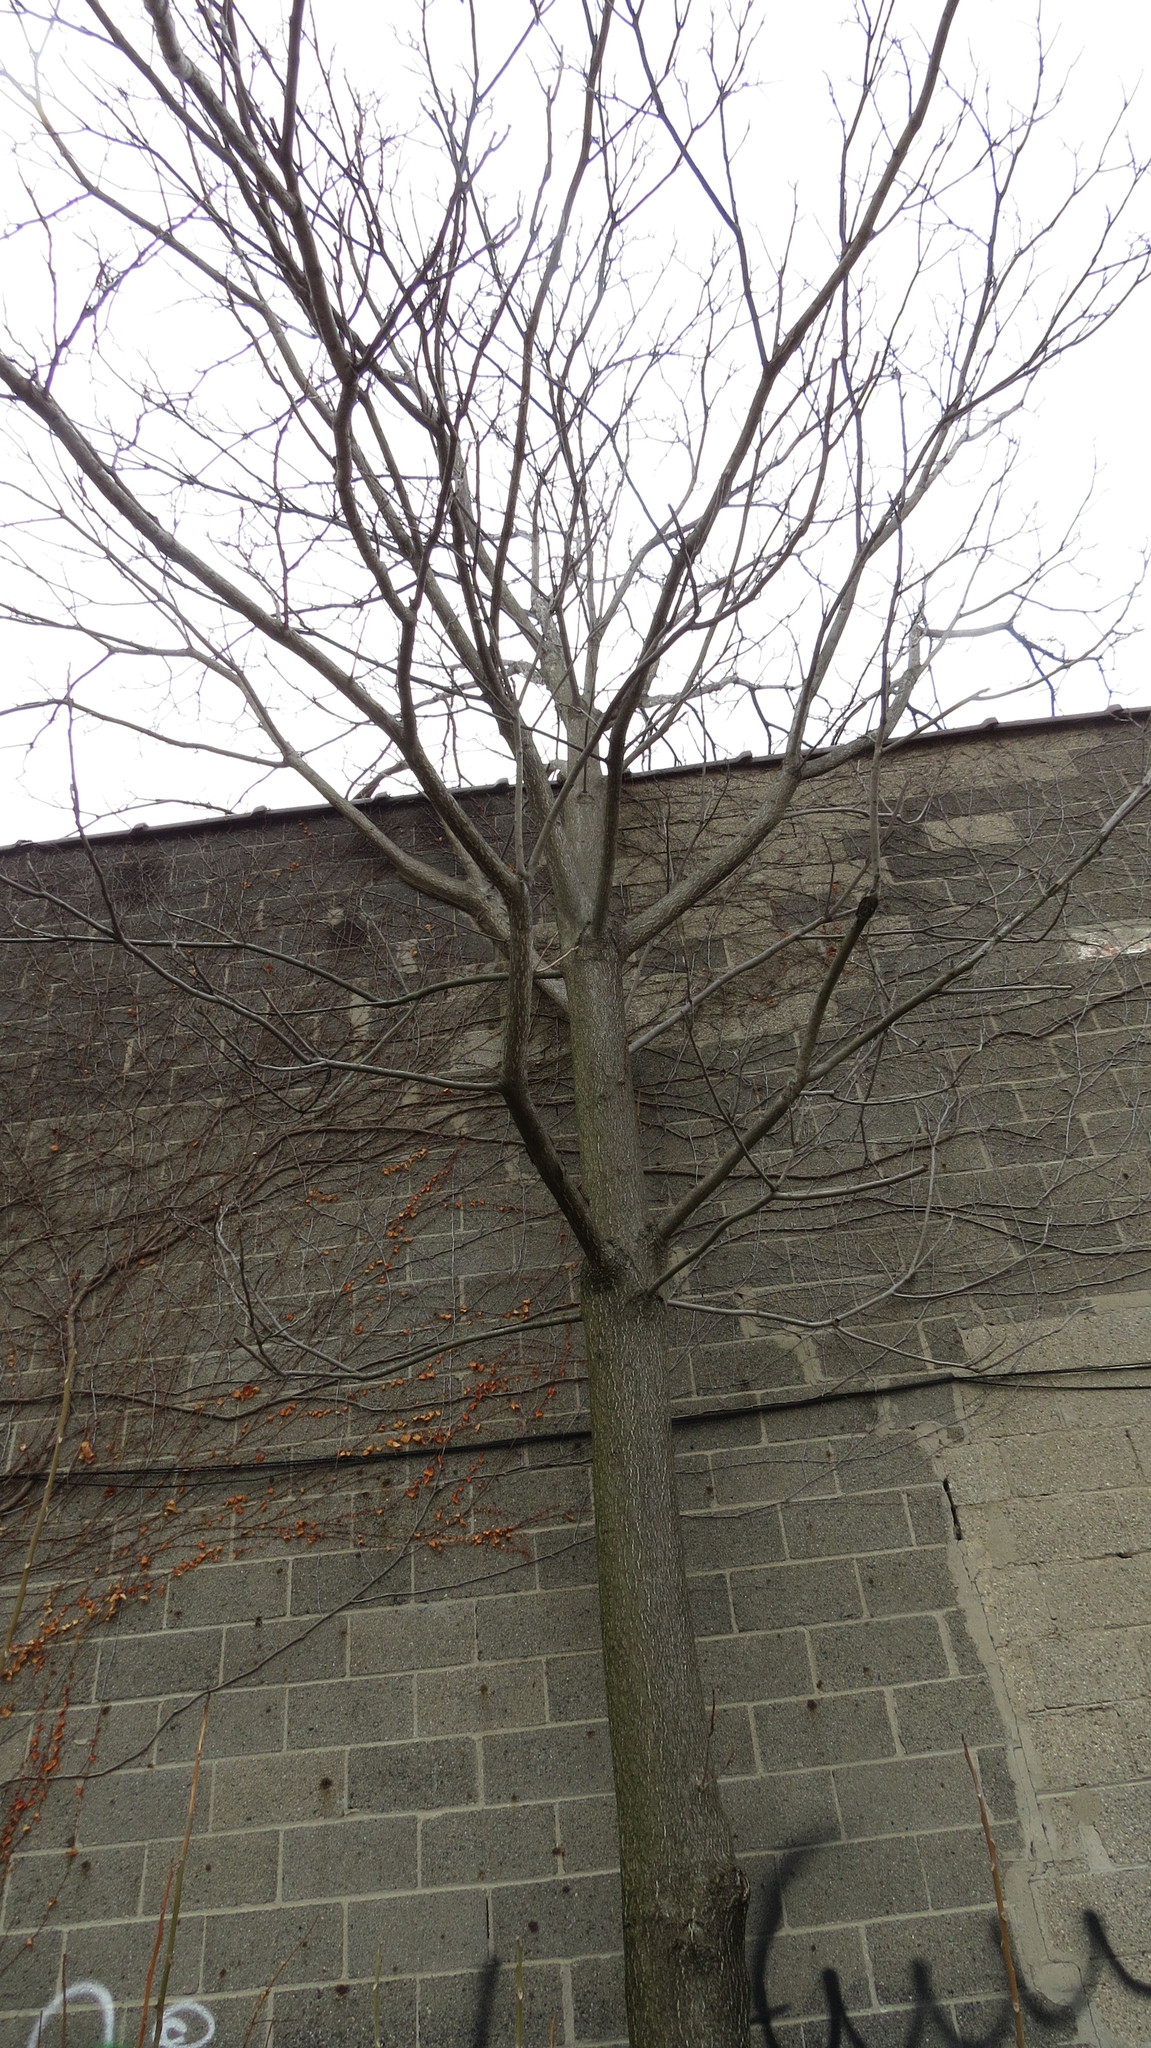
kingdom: Plantae
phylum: Tracheophyta
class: Magnoliopsida
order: Sapindales
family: Simaroubaceae
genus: Ailanthus
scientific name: Ailanthus altissima
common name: Tree-of-heaven
